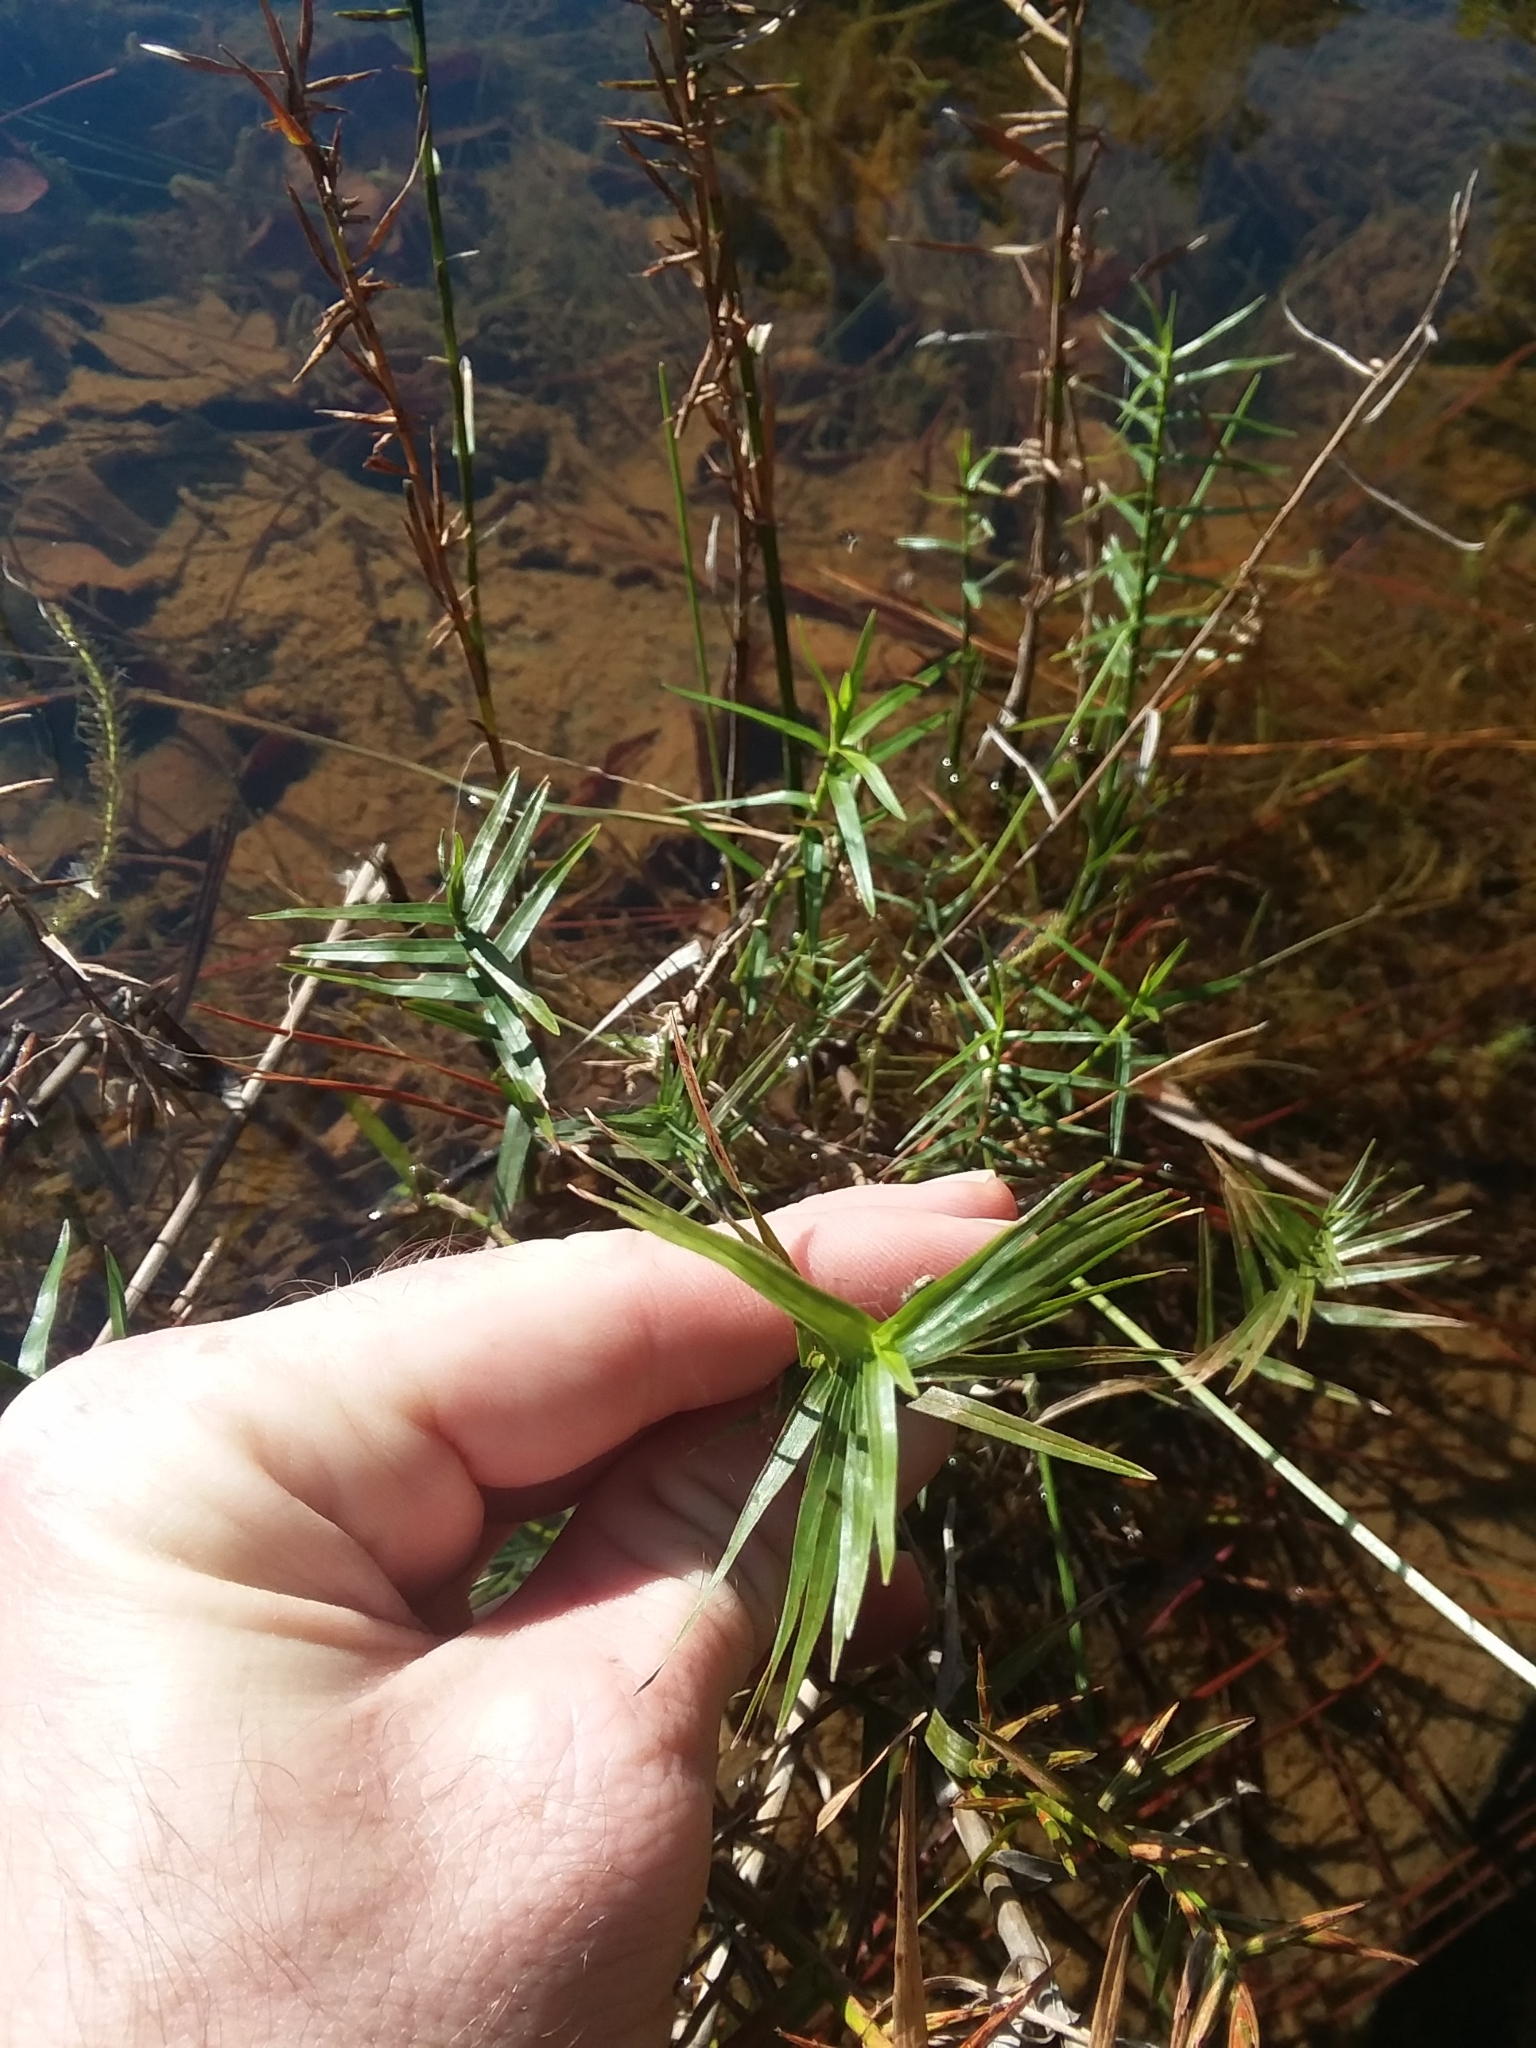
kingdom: Plantae
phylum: Tracheophyta
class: Liliopsida
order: Poales
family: Cyperaceae
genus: Dulichium
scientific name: Dulichium arundinaceum
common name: Three-way sedge
